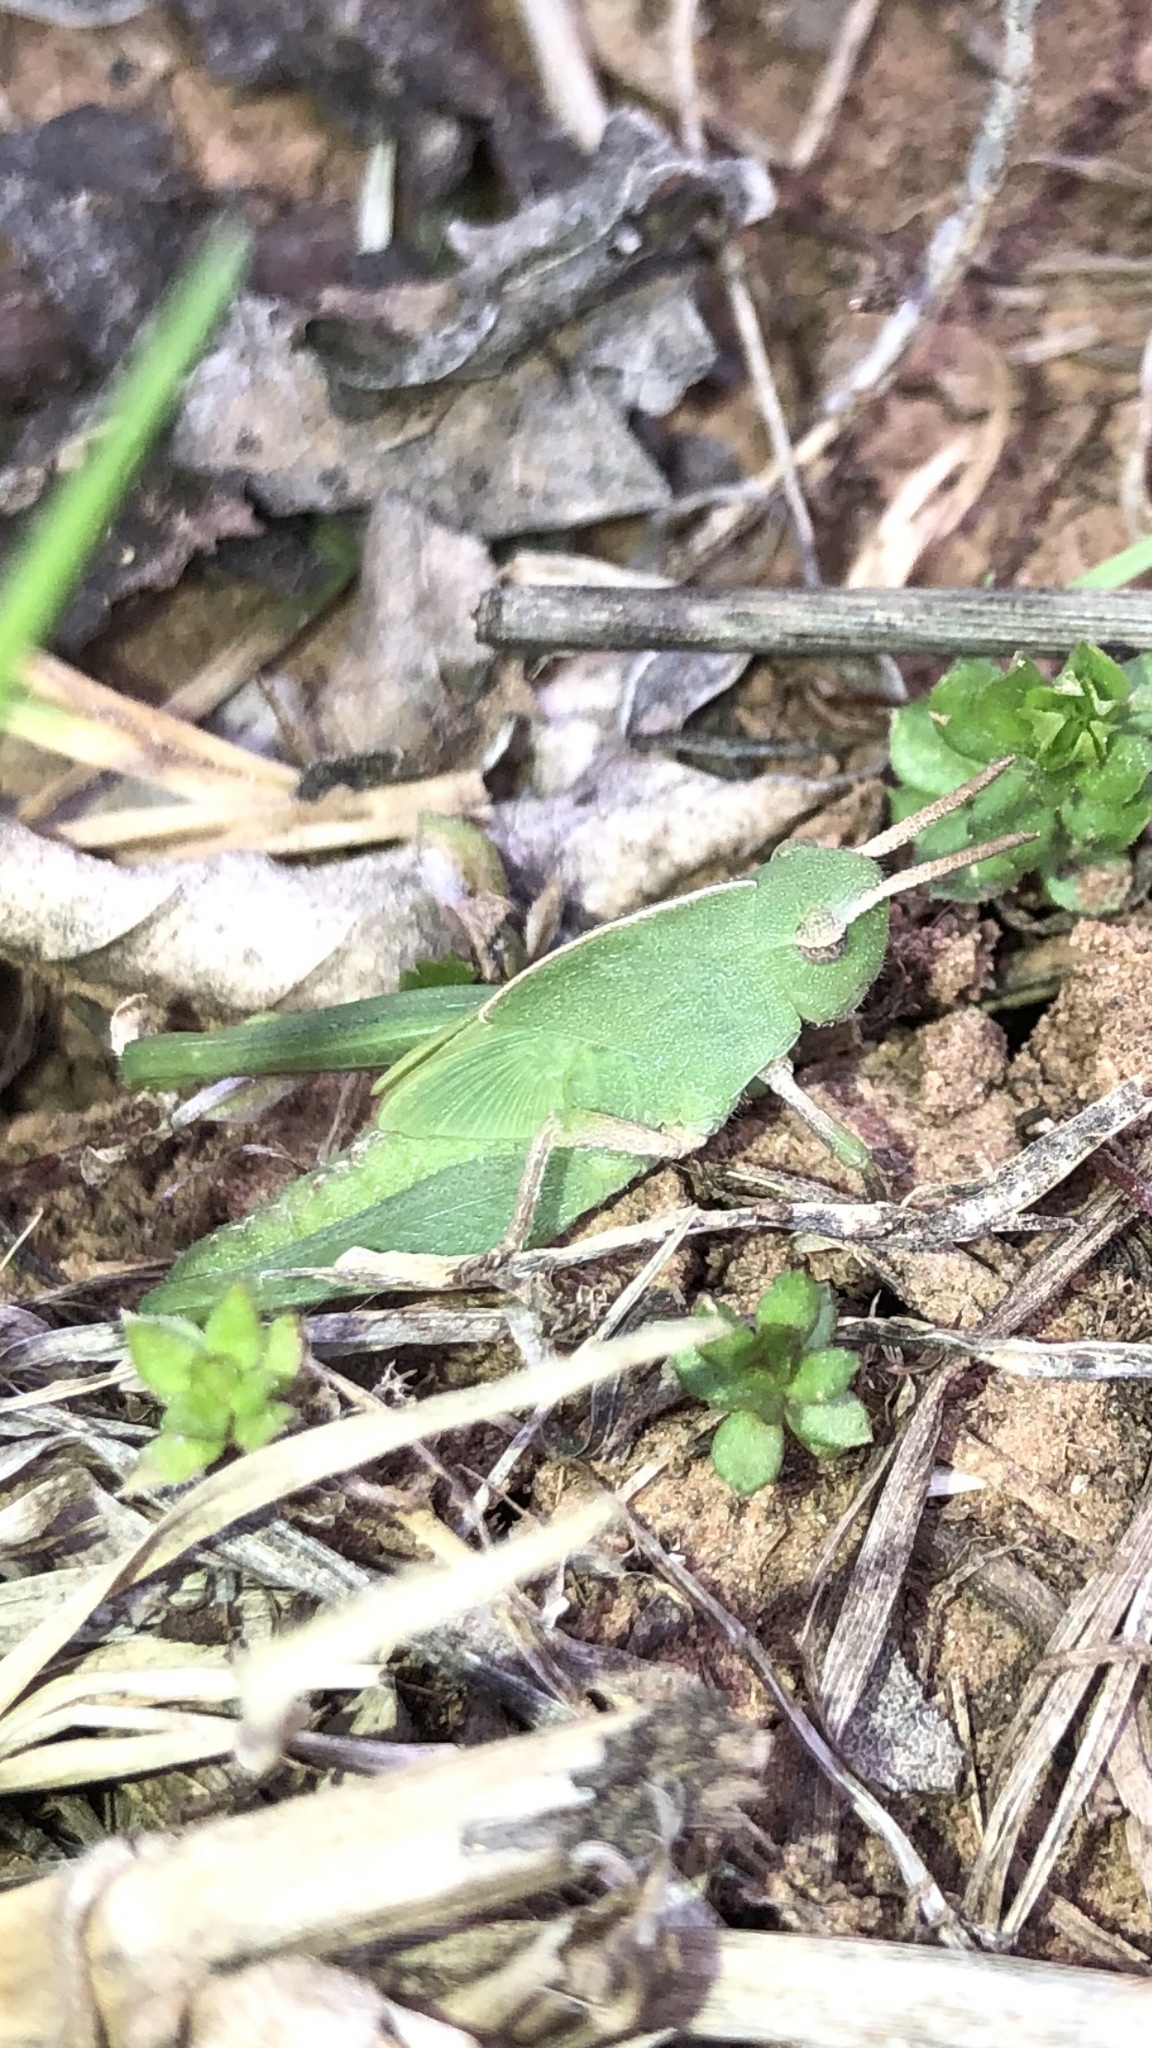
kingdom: Animalia
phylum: Arthropoda
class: Insecta
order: Orthoptera
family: Acrididae
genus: Chortophaga
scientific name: Chortophaga viridifasciata
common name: Green-striped grasshopper
